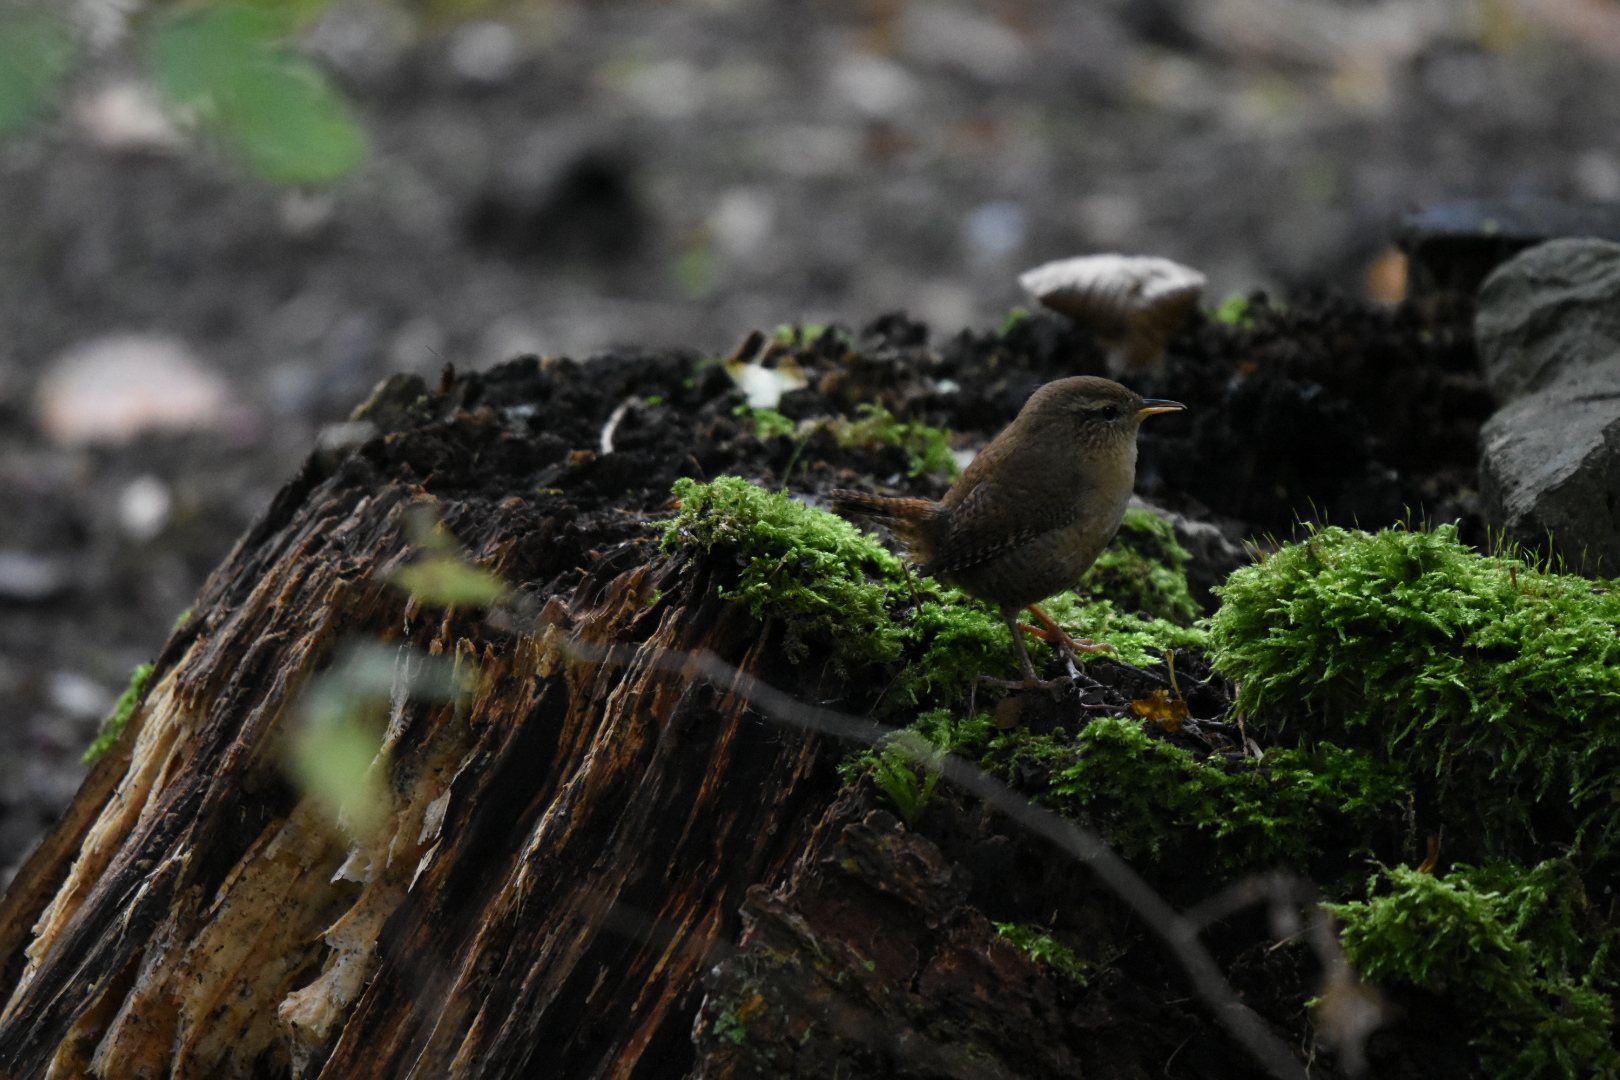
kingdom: Animalia
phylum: Chordata
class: Aves
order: Passeriformes
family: Troglodytidae
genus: Troglodytes
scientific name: Troglodytes troglodytes
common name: Eurasian wren
